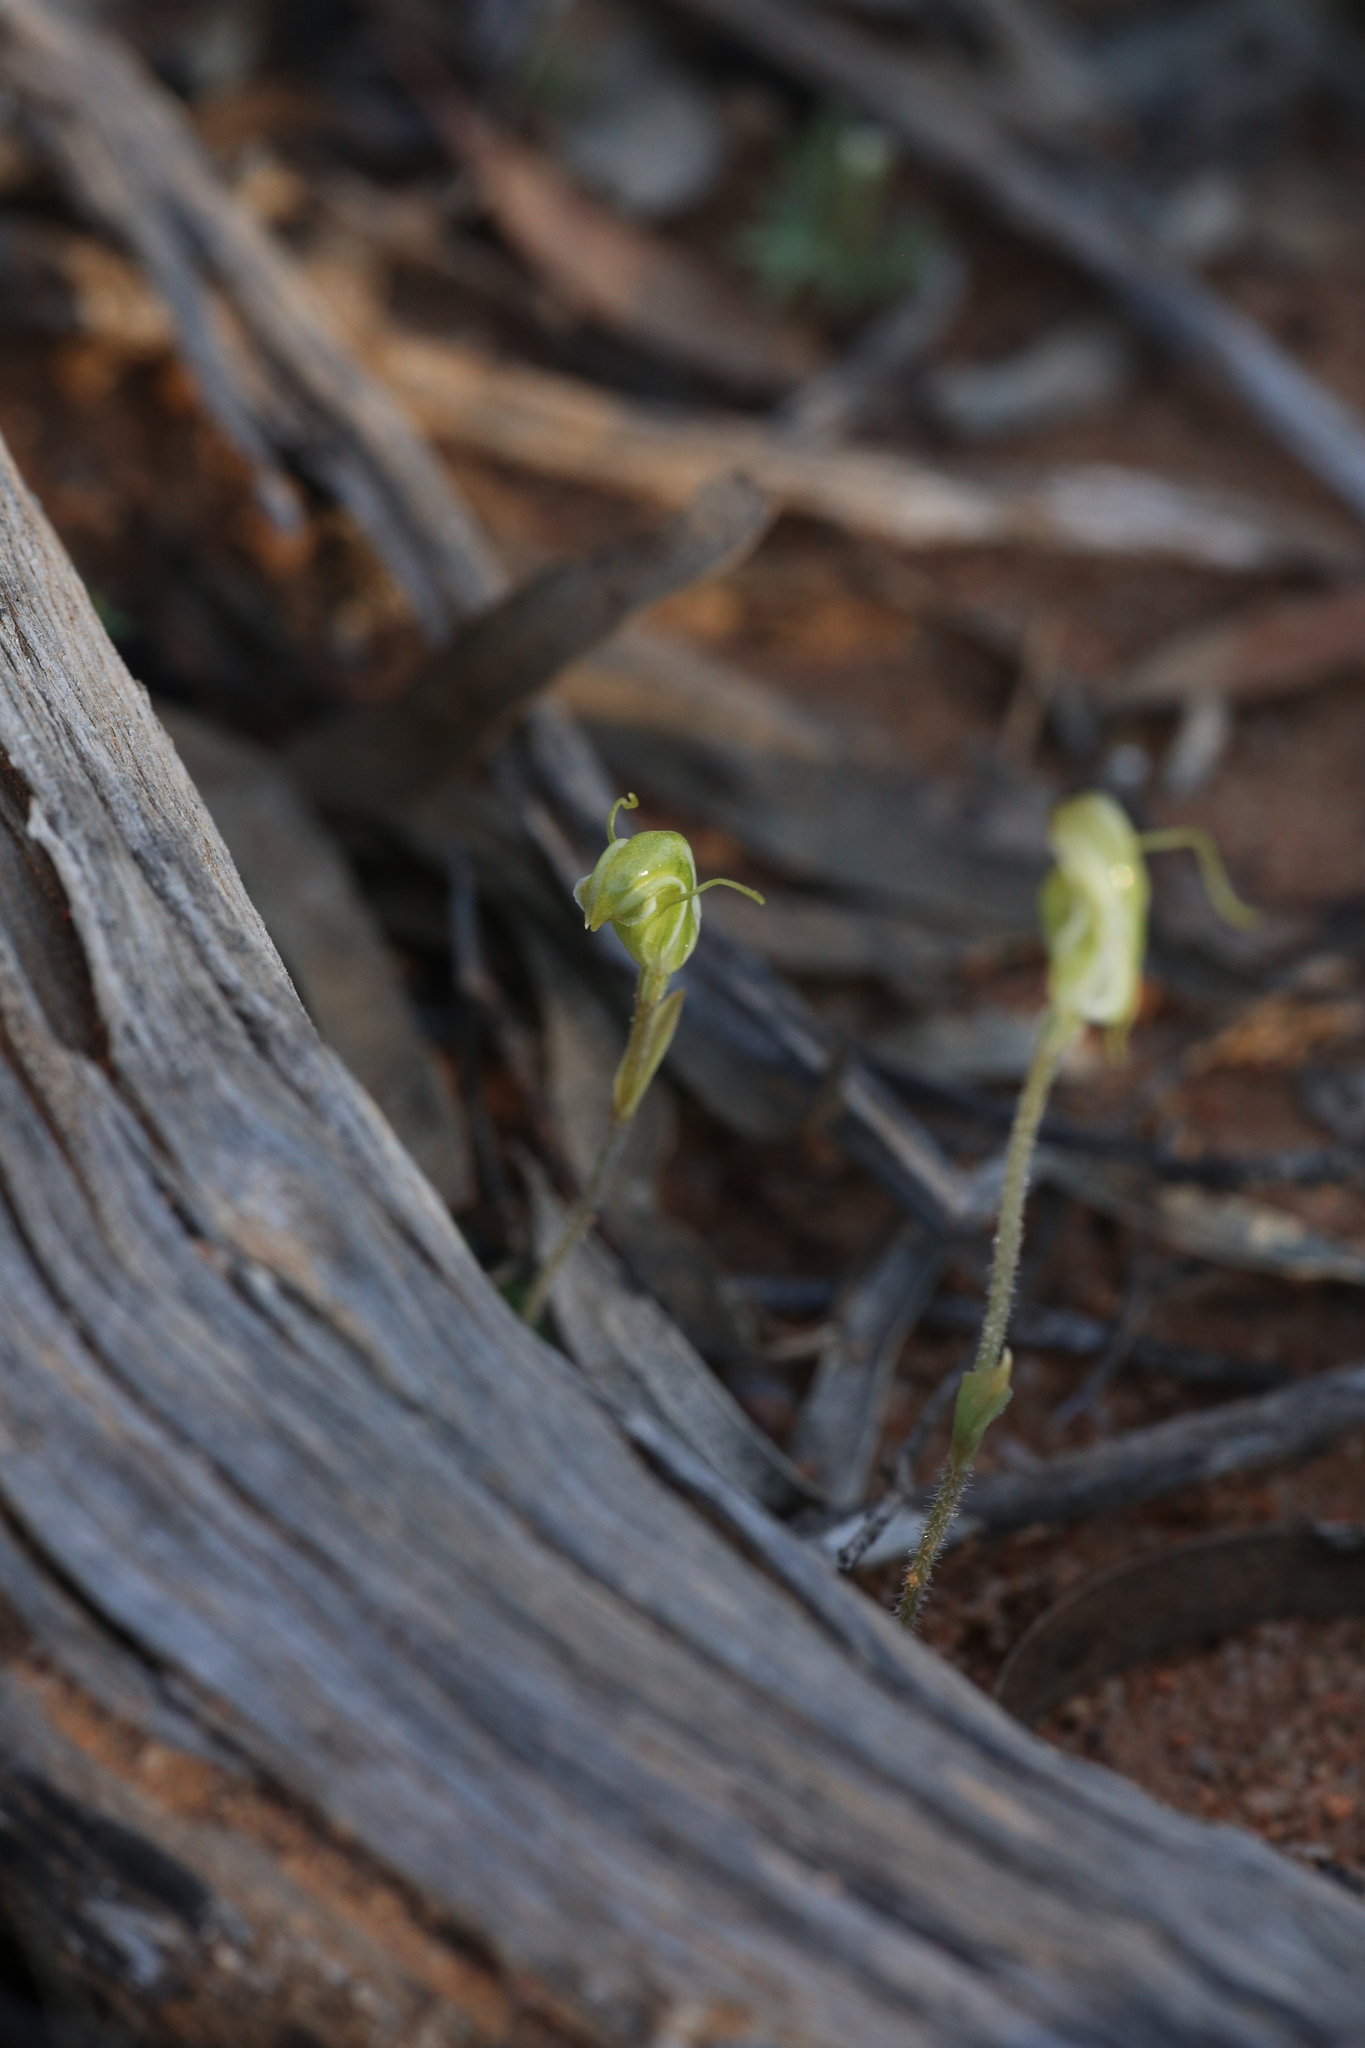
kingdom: Plantae
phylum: Tracheophyta
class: Liliopsida
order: Asparagales
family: Orchidaceae
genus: Pterostylis
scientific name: Pterostylis setulosa
